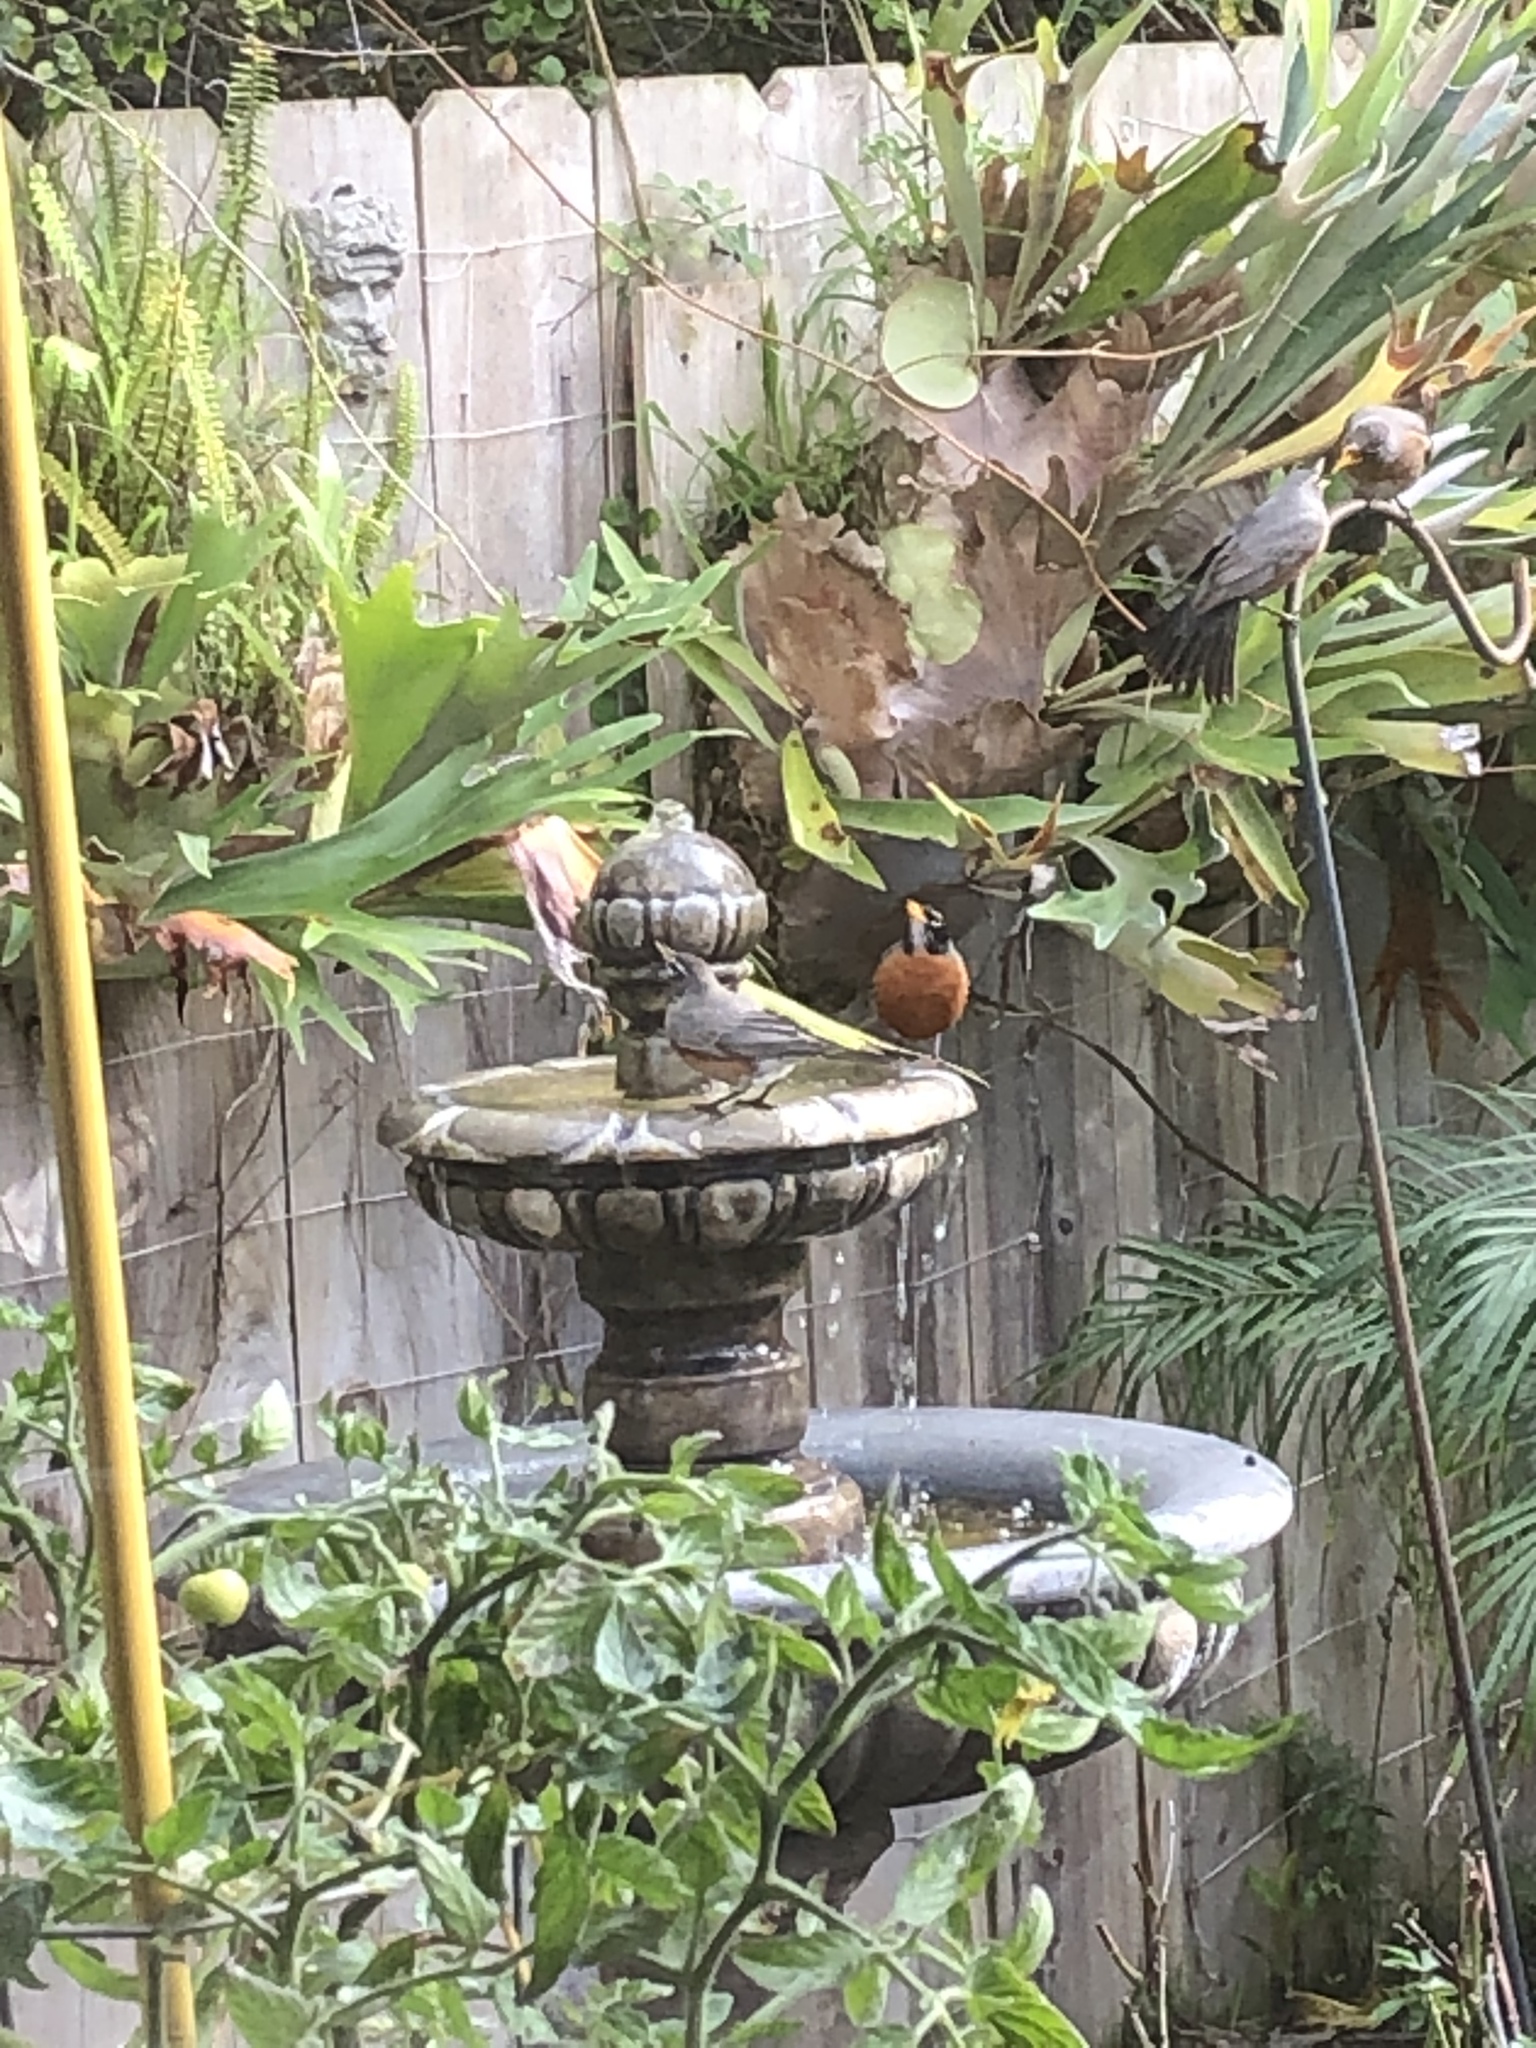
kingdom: Animalia
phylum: Chordata
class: Aves
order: Passeriformes
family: Turdidae
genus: Turdus
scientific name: Turdus migratorius
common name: American robin
